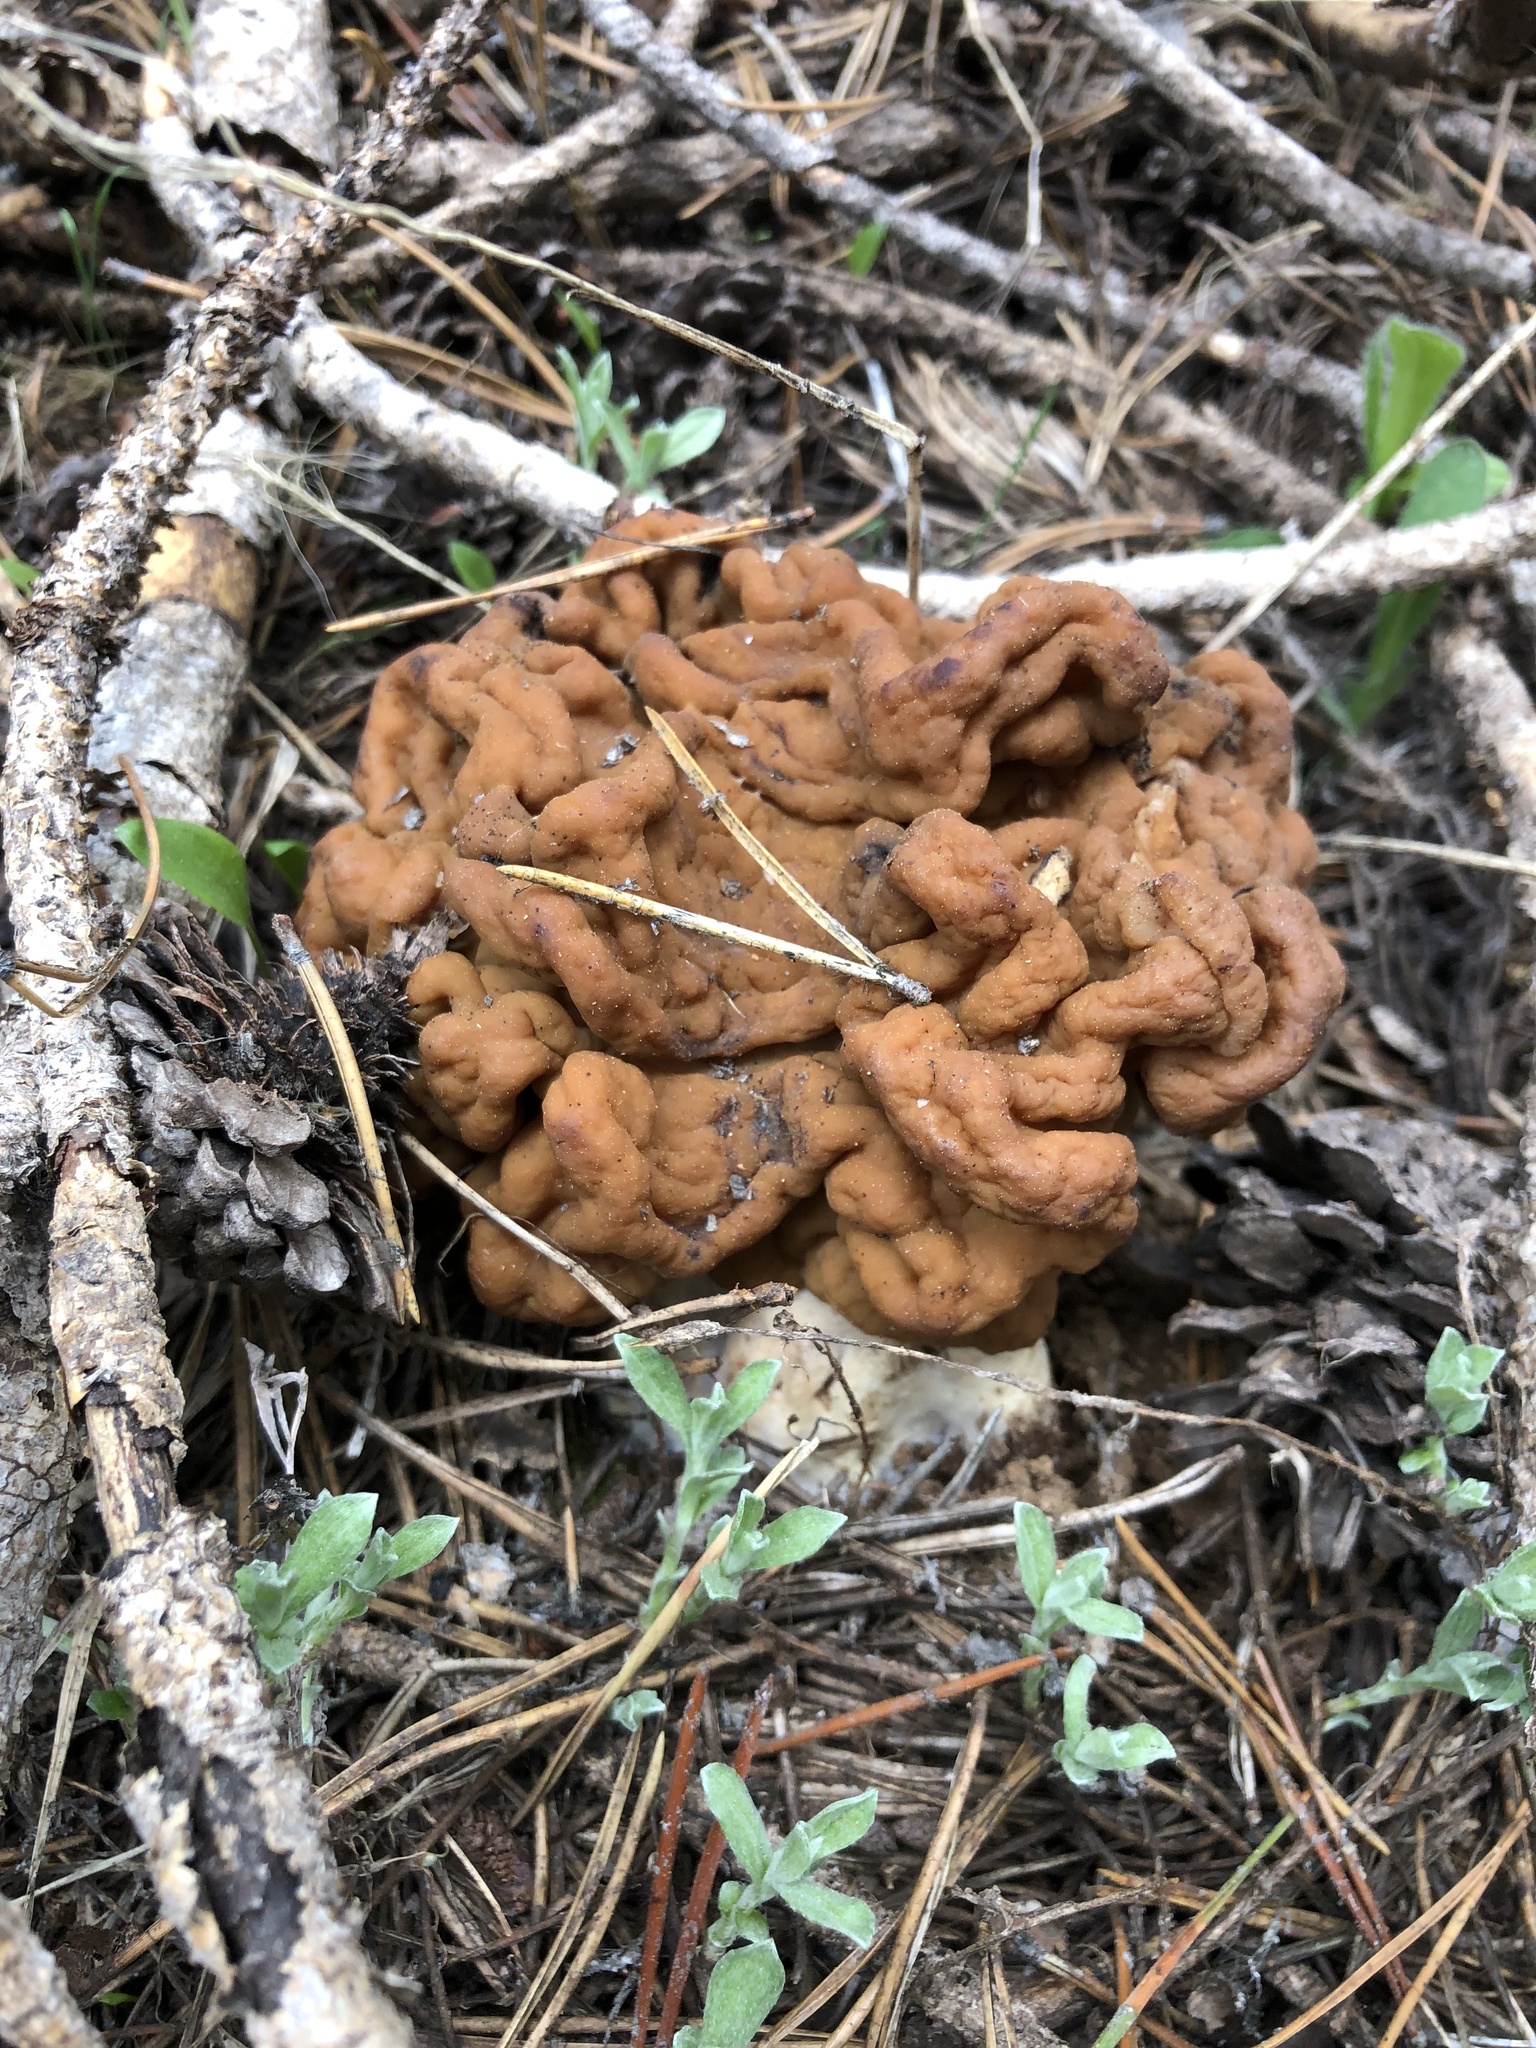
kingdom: Fungi
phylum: Ascomycota
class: Pezizomycetes
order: Pezizales
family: Discinaceae
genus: Discina
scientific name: Discina montana
